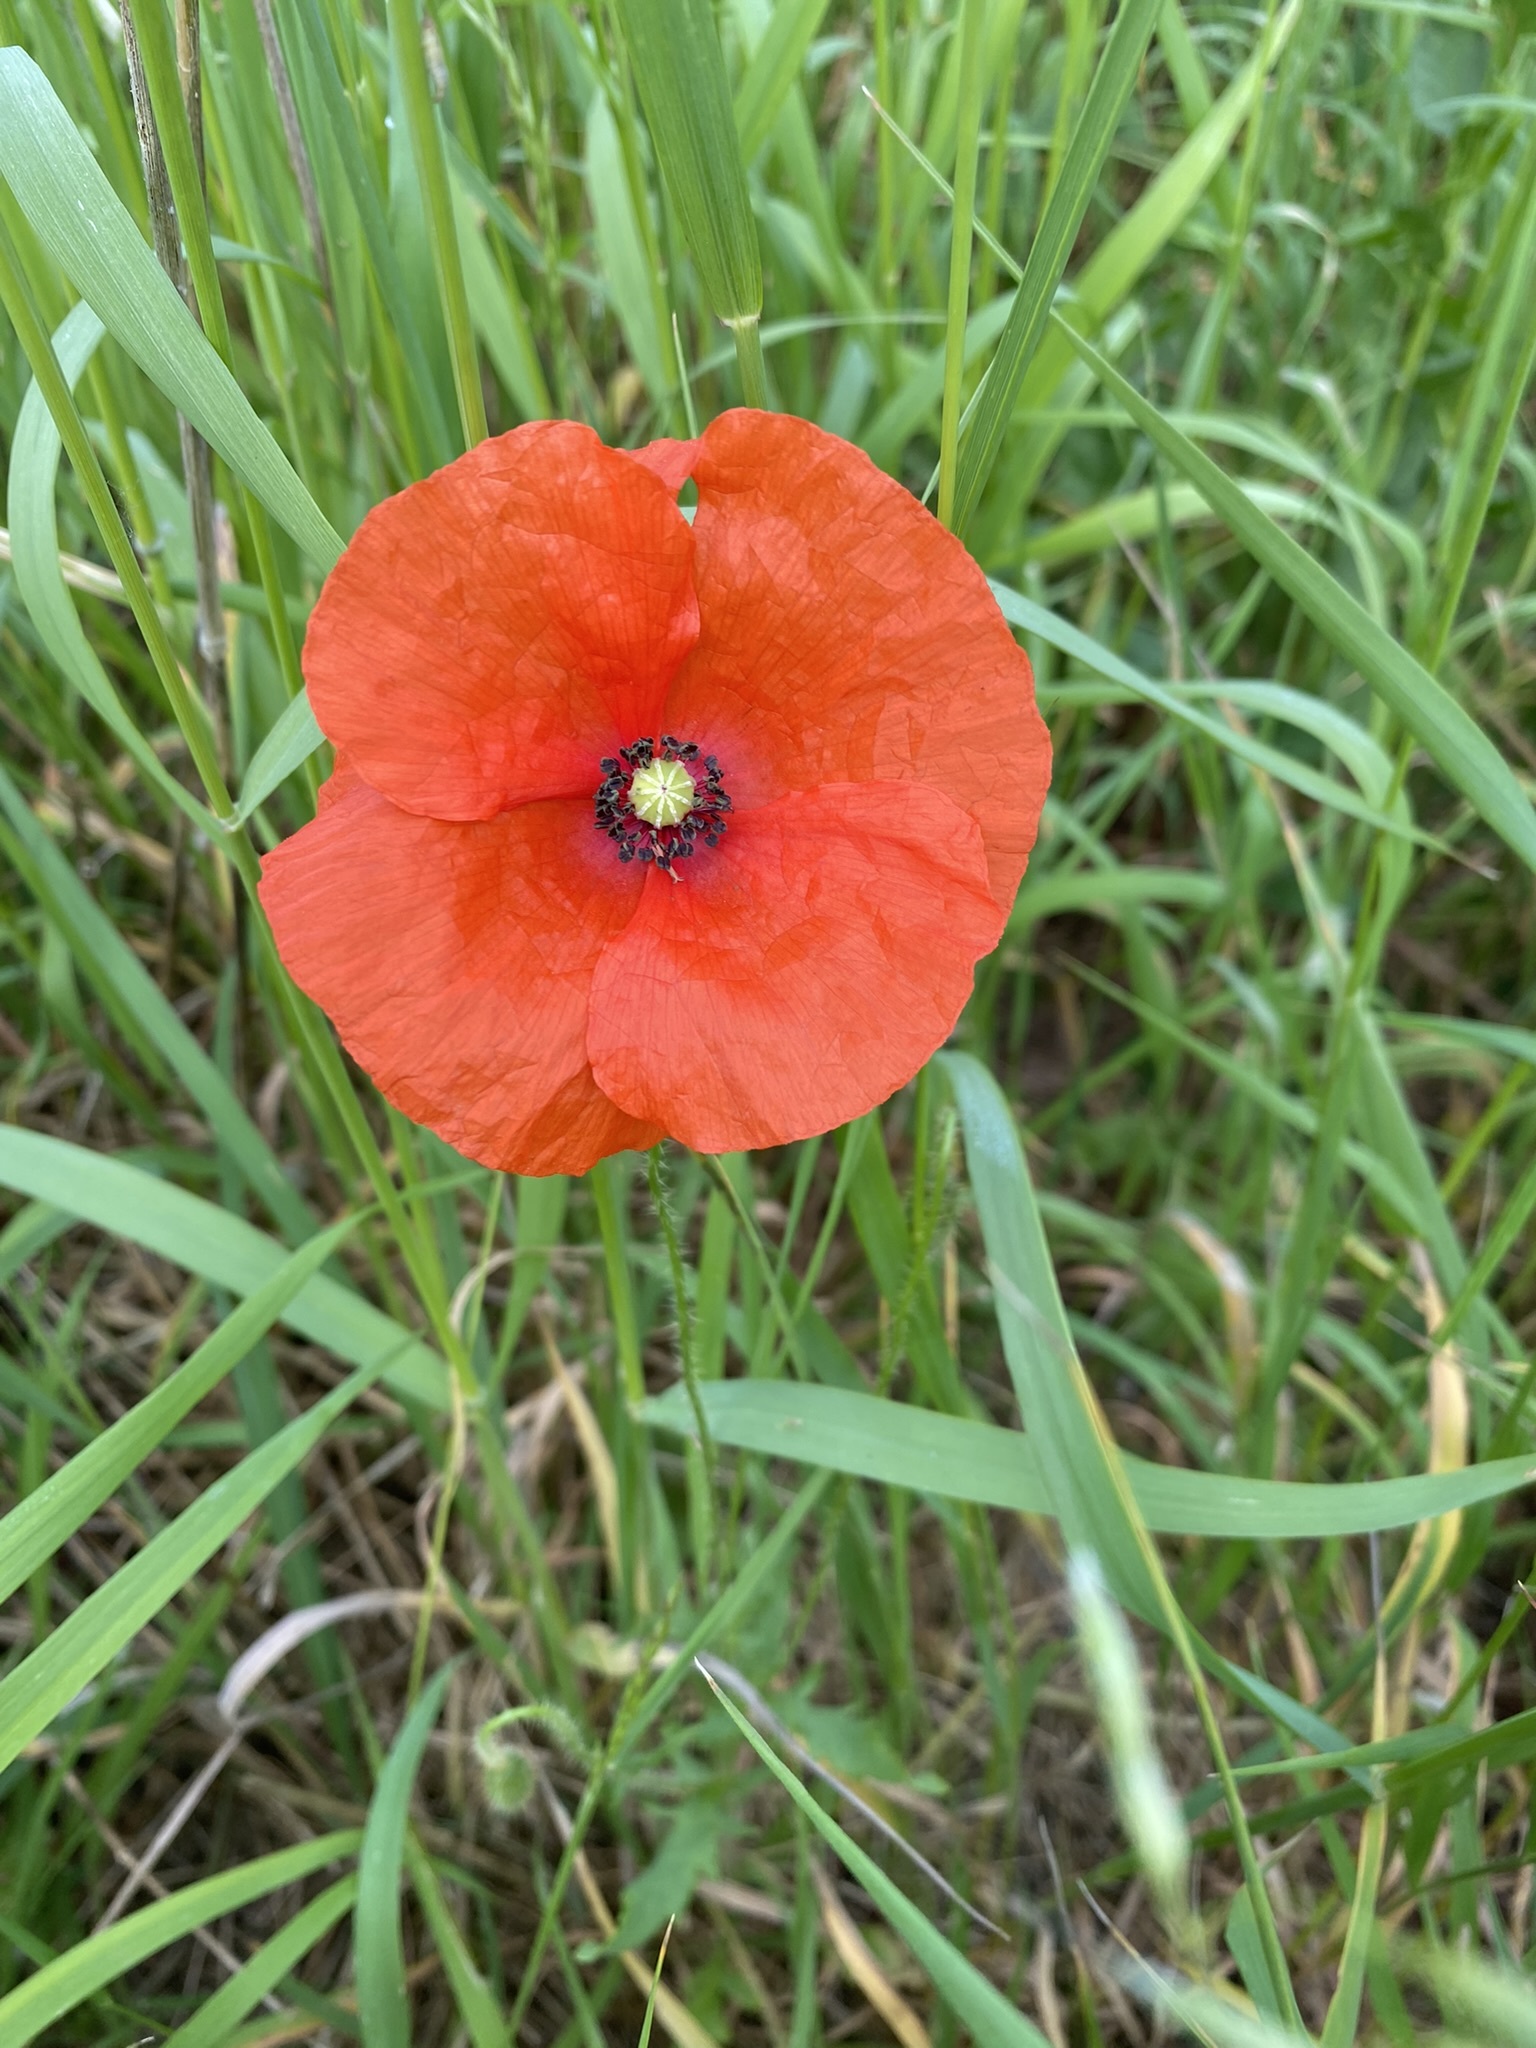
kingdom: Plantae
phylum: Tracheophyta
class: Magnoliopsida
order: Ranunculales
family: Papaveraceae
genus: Papaver
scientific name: Papaver rhoeas
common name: Corn poppy
